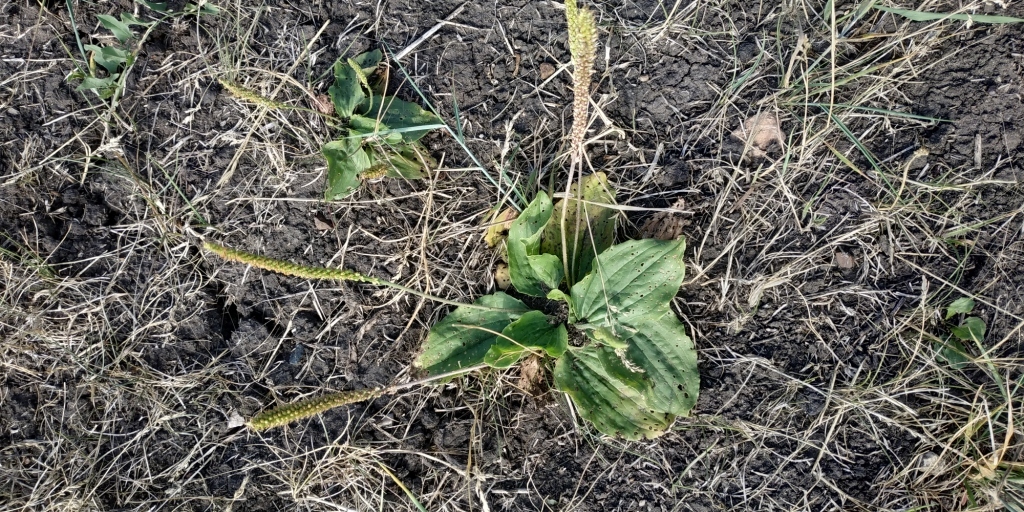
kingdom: Plantae
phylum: Tracheophyta
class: Magnoliopsida
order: Lamiales
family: Plantaginaceae
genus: Plantago
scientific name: Plantago major
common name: Common plantain
